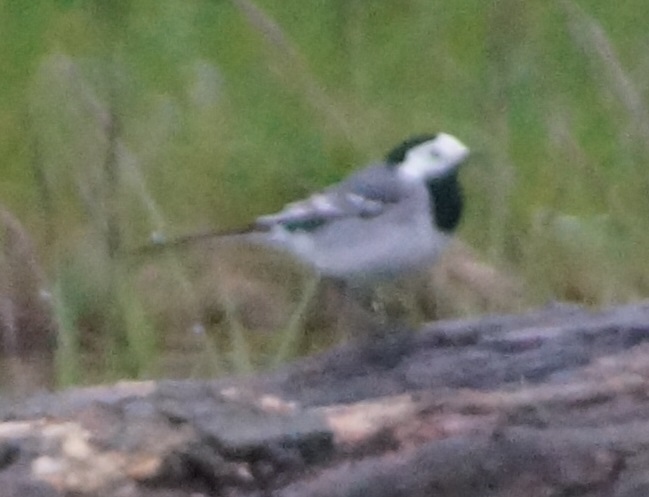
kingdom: Animalia
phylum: Chordata
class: Aves
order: Passeriformes
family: Motacillidae
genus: Motacilla
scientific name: Motacilla alba
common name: White wagtail
